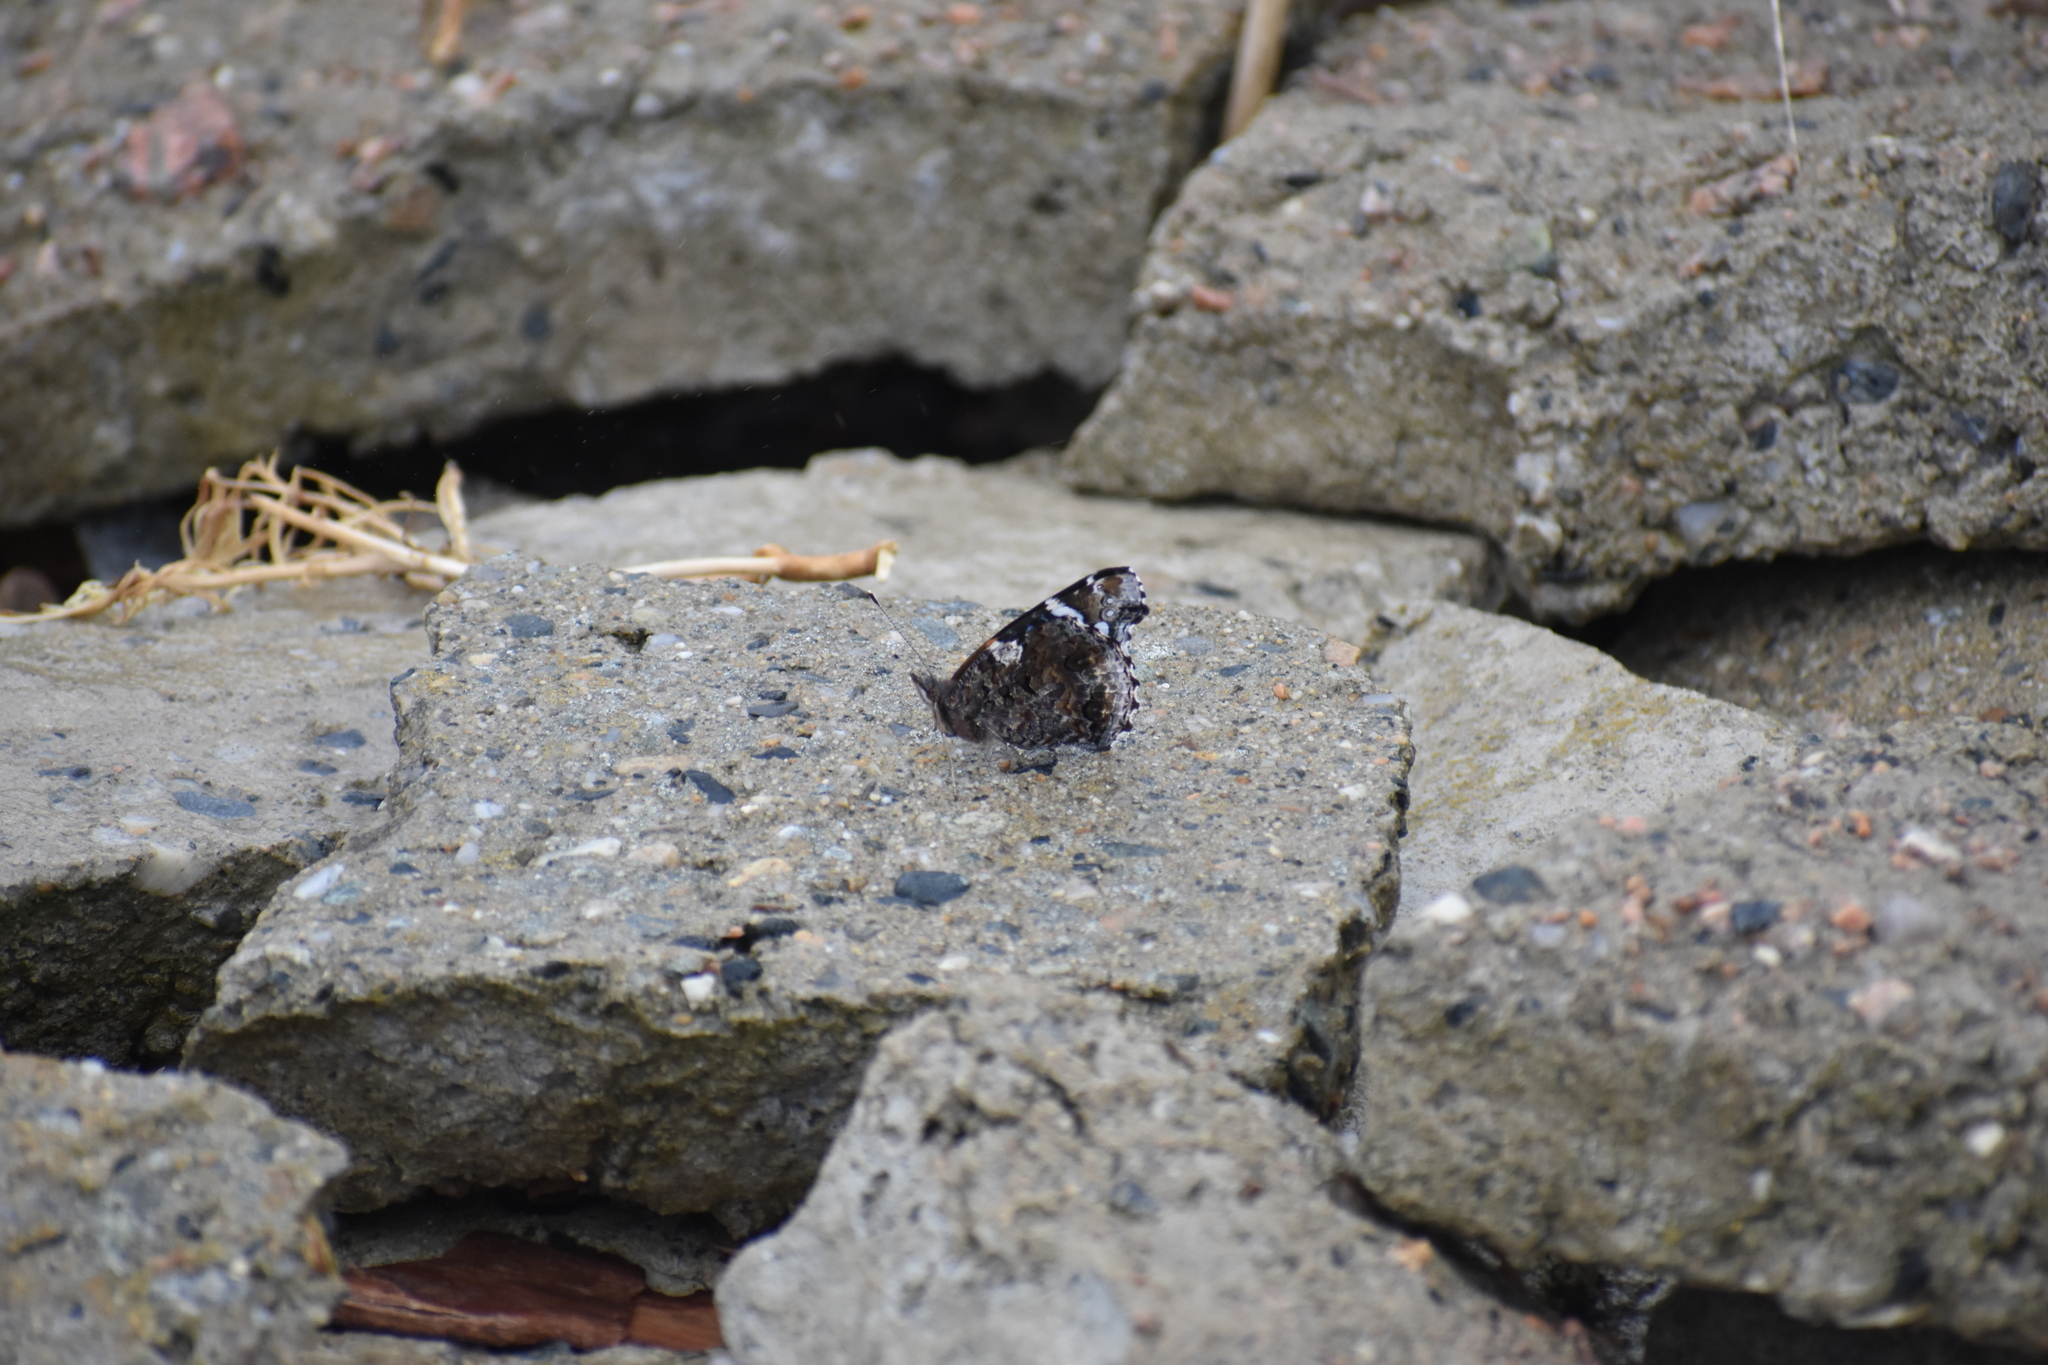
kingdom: Animalia
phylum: Arthropoda
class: Insecta
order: Lepidoptera
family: Nymphalidae
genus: Vanessa
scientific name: Vanessa atalanta
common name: Red admiral
